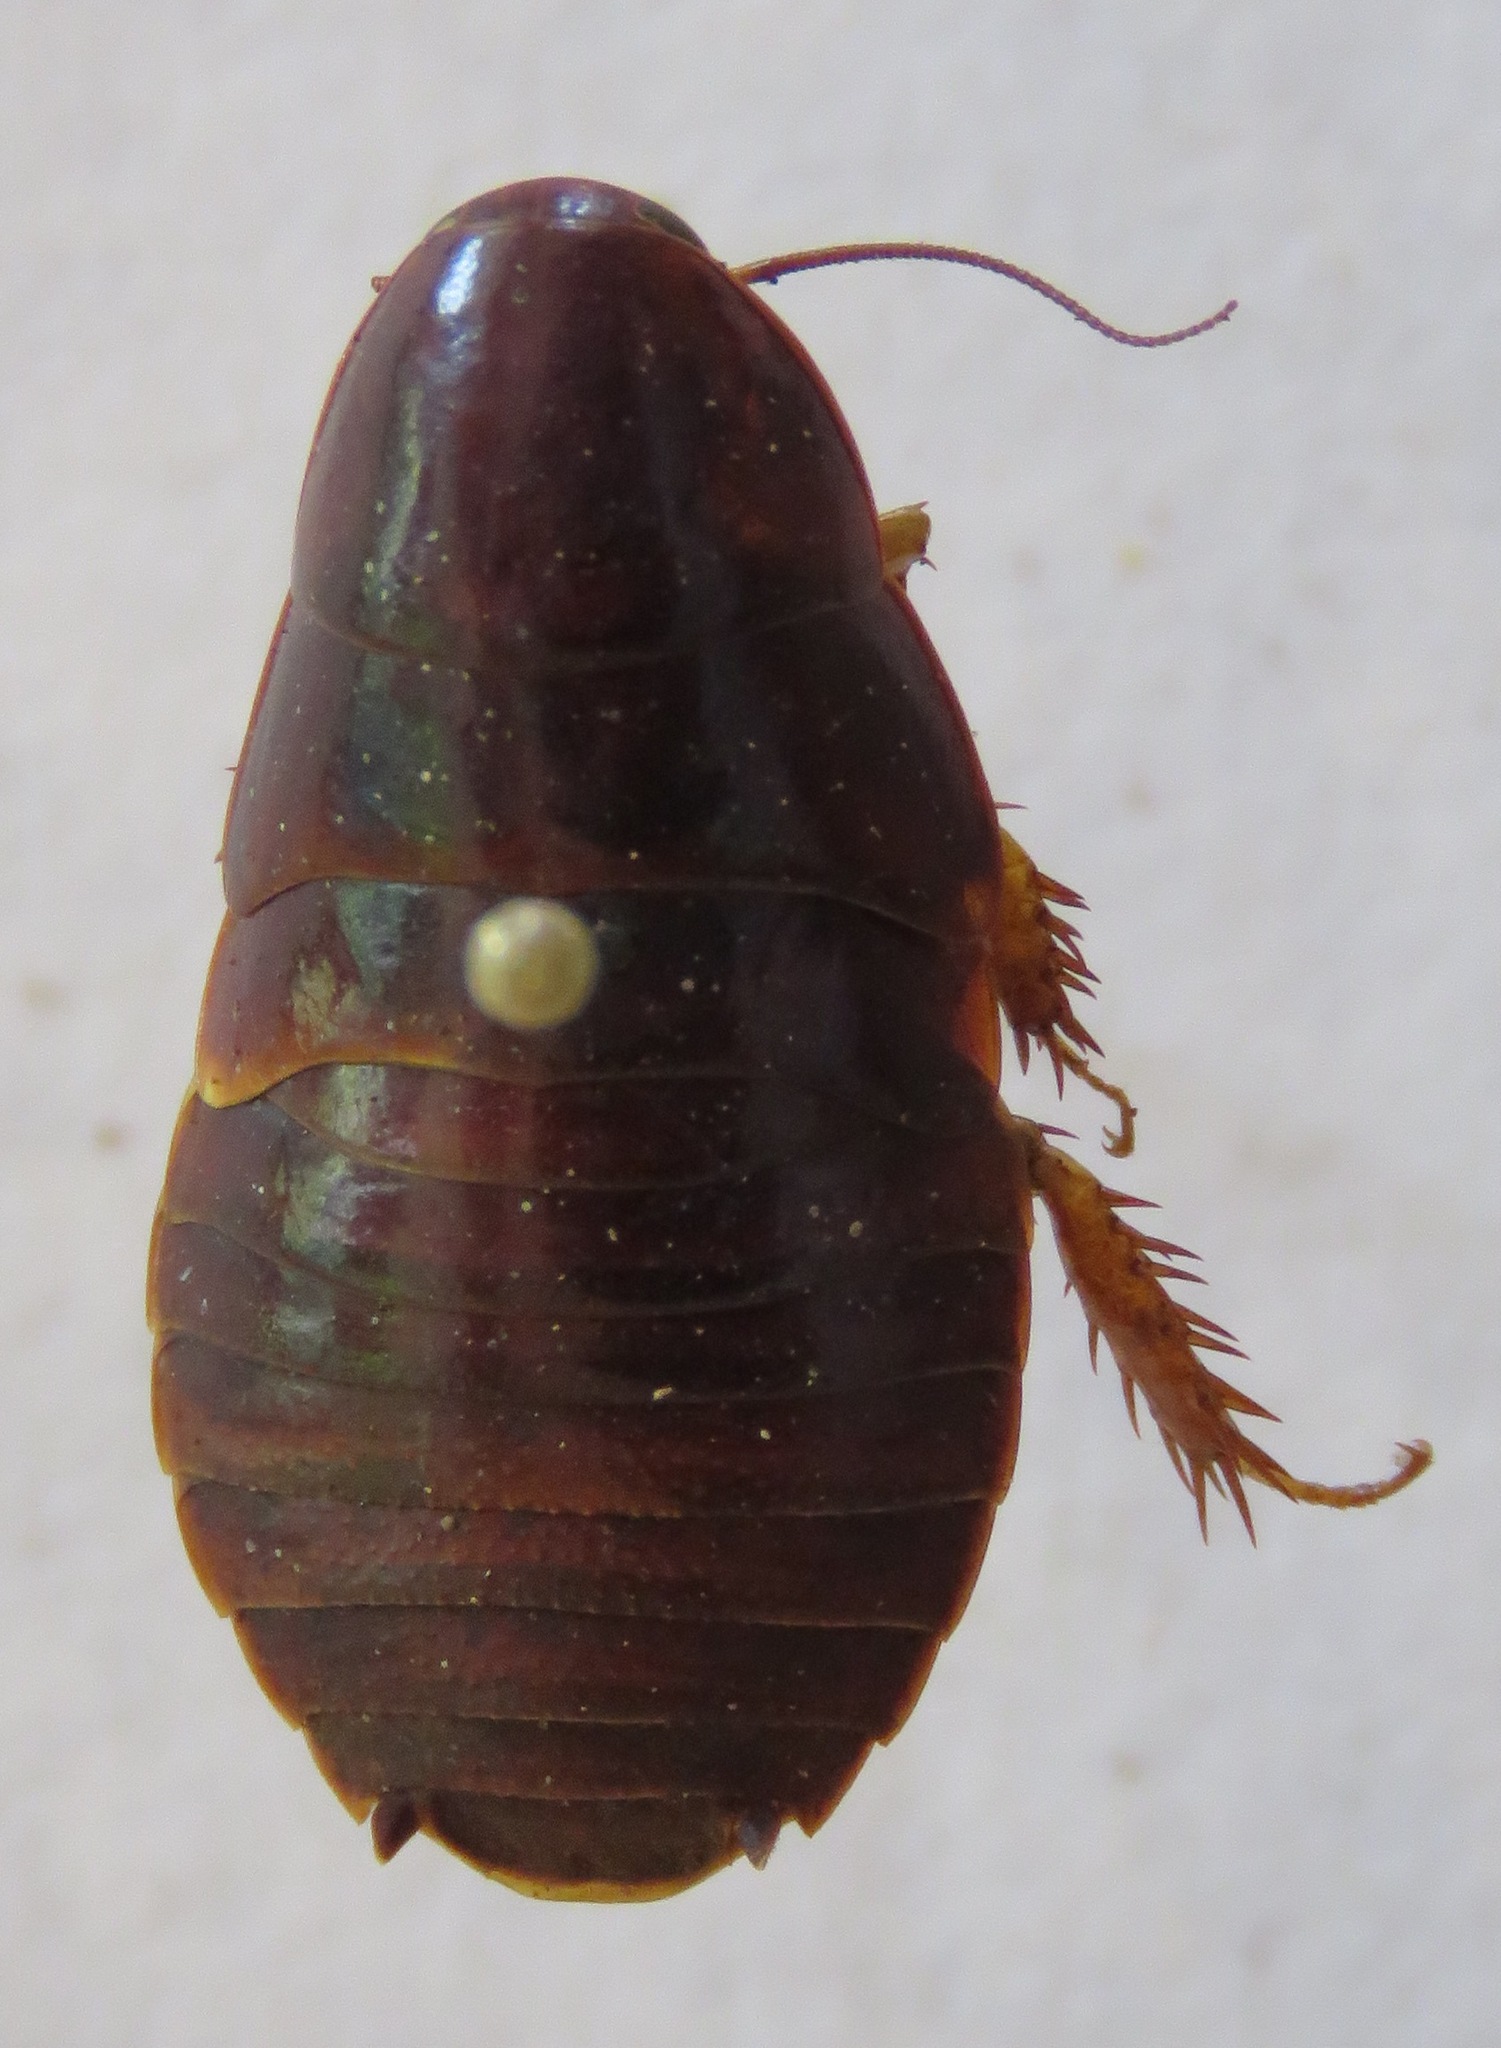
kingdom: Animalia
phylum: Arthropoda
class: Insecta
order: Blattodea
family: Blaberidae
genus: Pycnoscelus
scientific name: Pycnoscelus surinamensis
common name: Surinam cockroach
